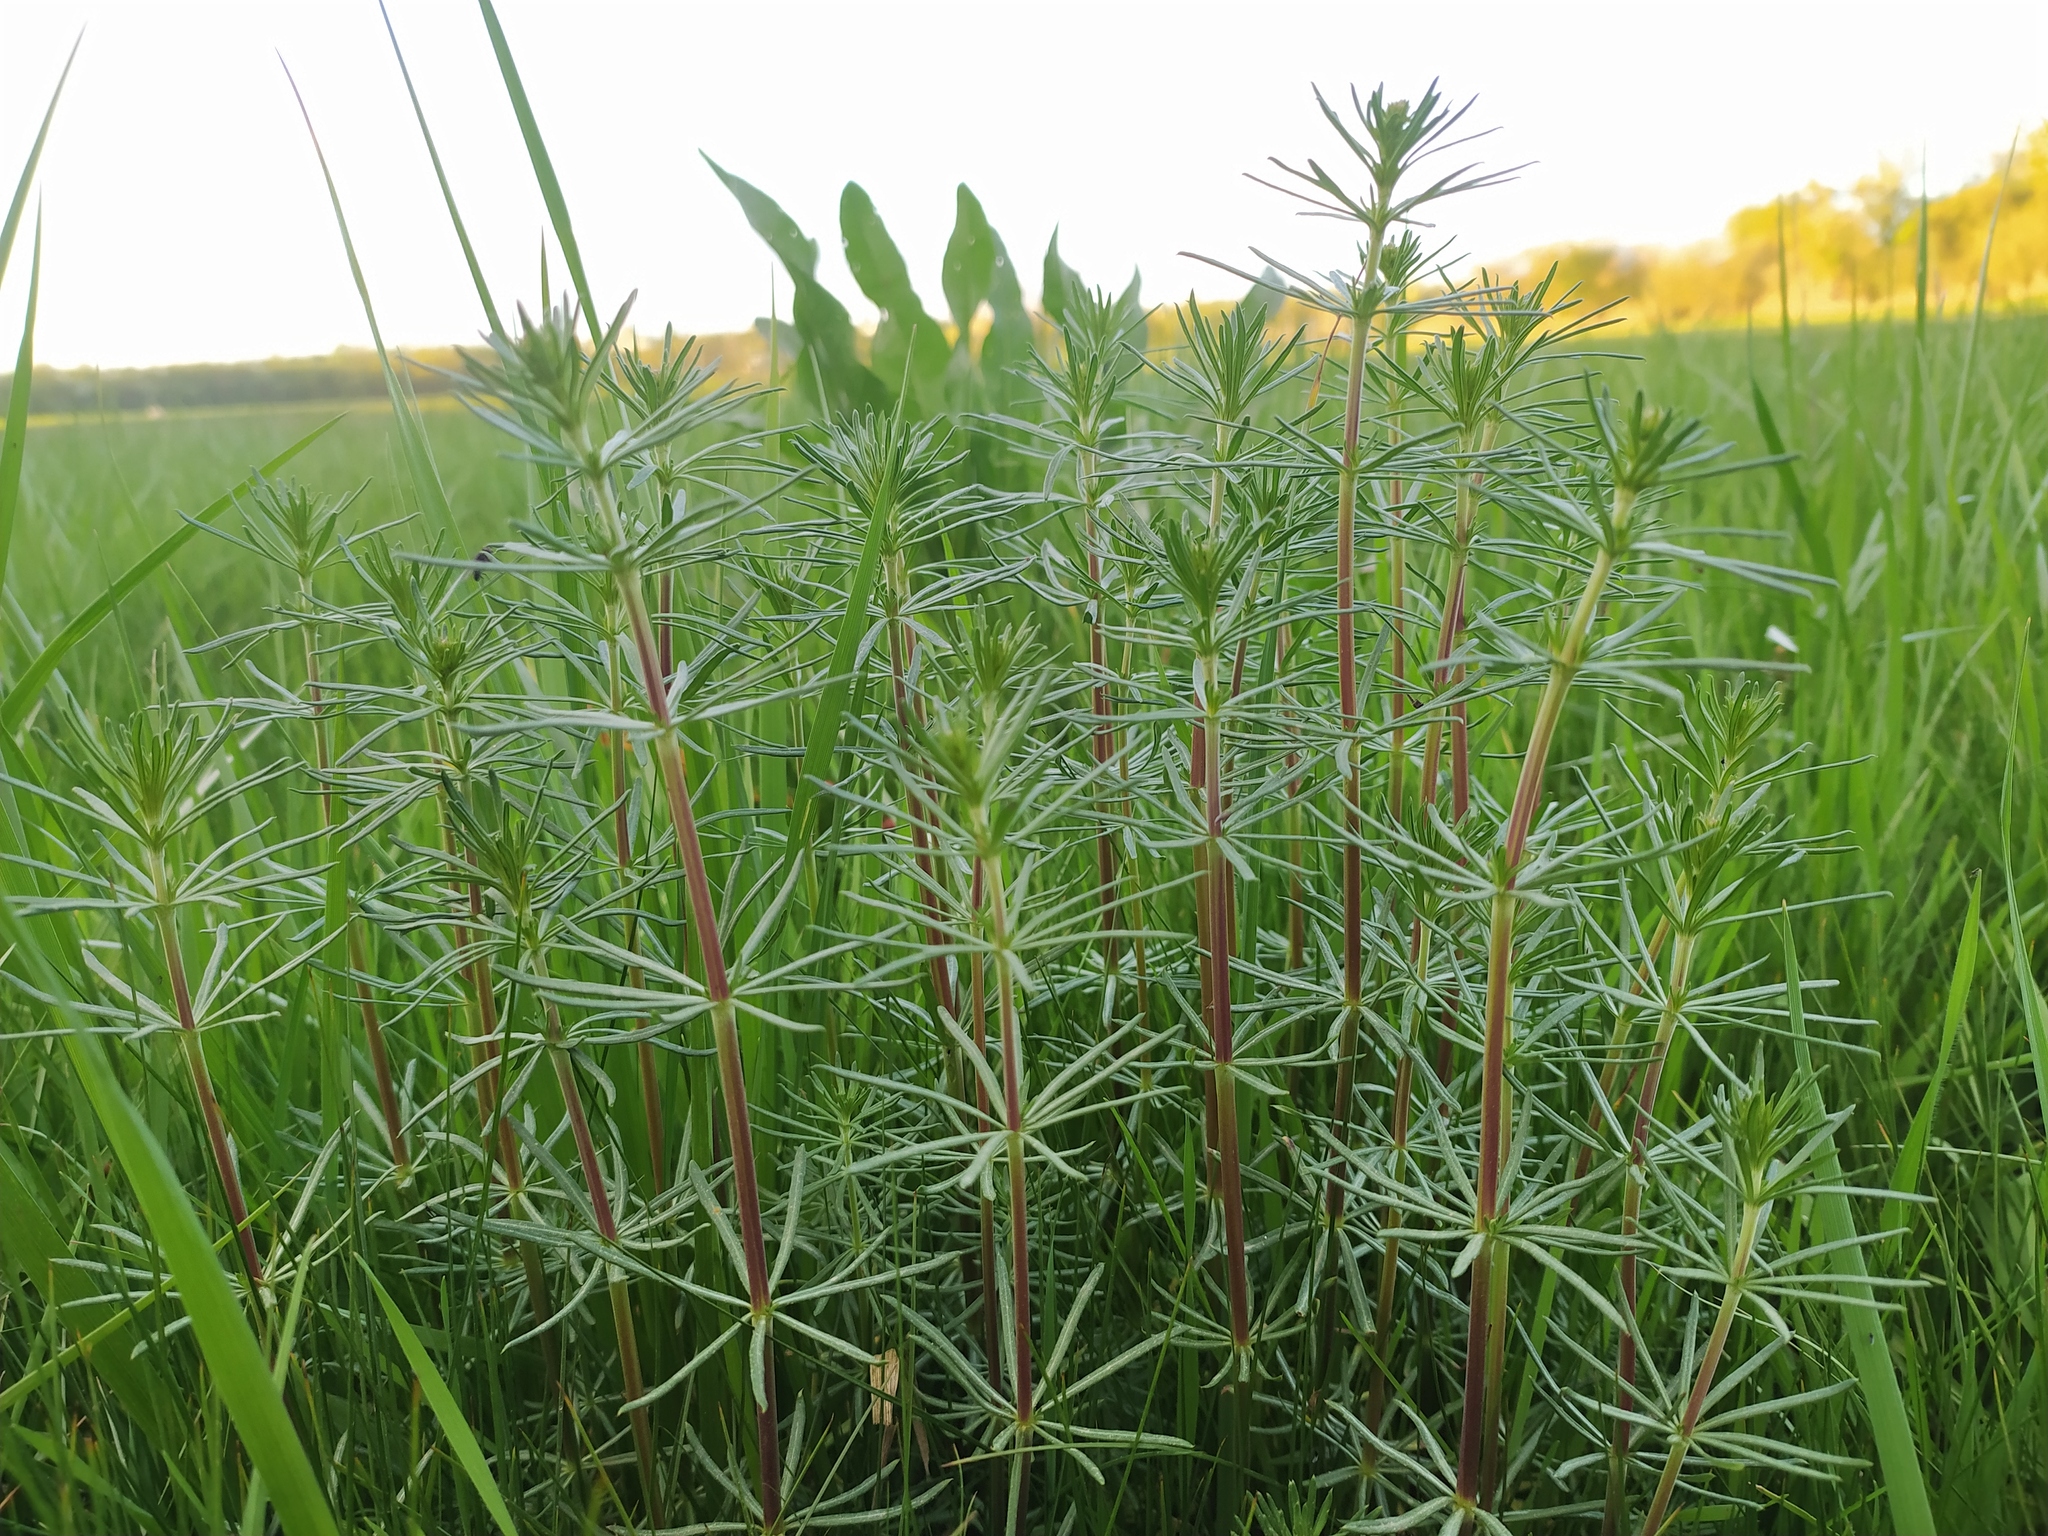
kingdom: Plantae
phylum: Tracheophyta
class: Magnoliopsida
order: Gentianales
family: Rubiaceae
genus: Galium
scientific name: Galium verum
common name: Lady's bedstraw
